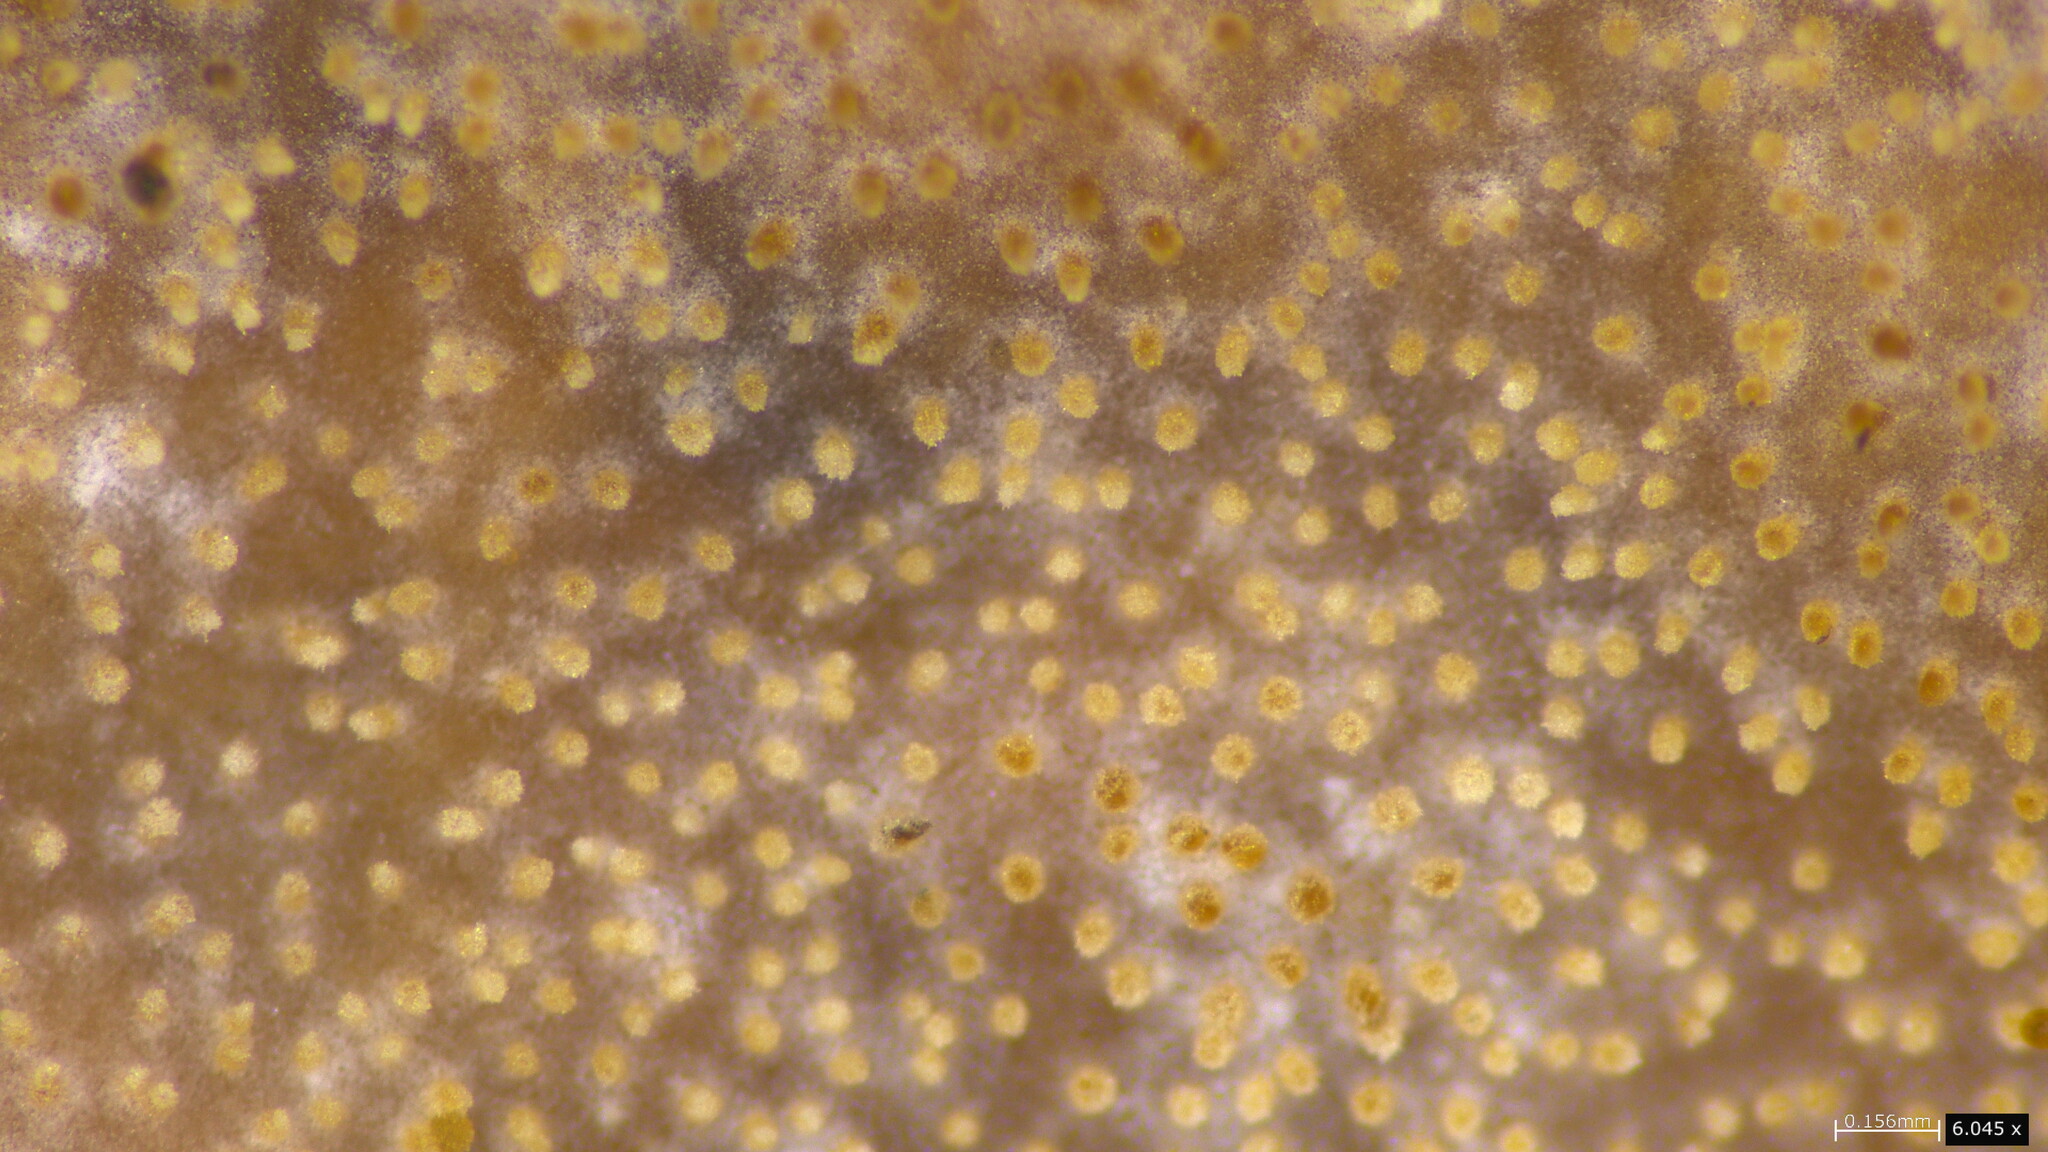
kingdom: Fungi
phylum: Basidiomycota
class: Agaricomycetes
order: Auriculariales
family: Auriculariaceae
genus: Heterochaete
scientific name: Heterochaete delicata
